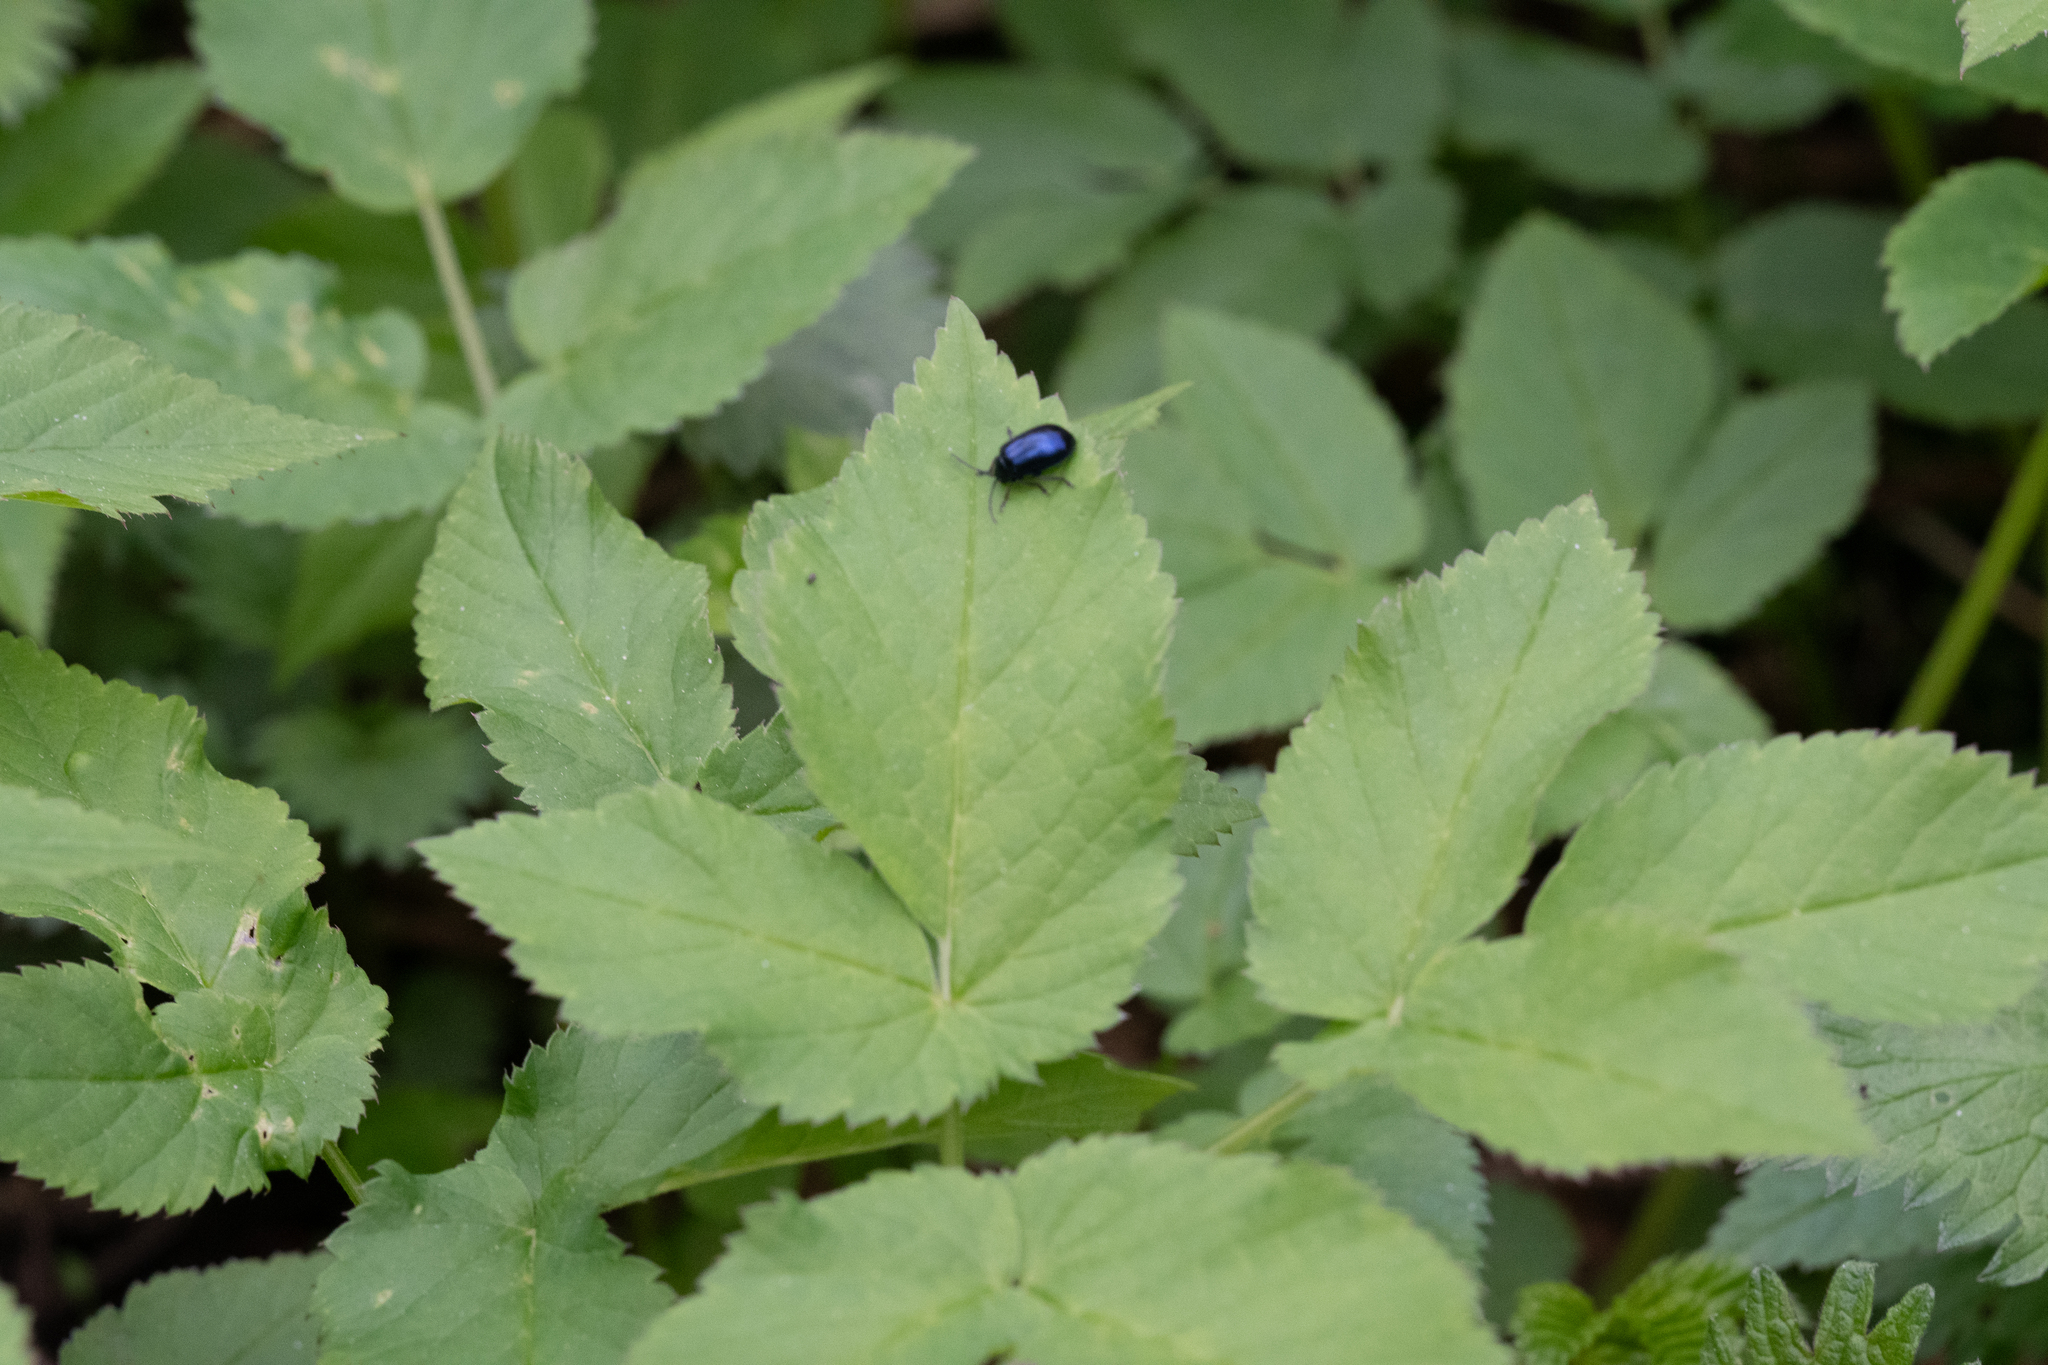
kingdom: Animalia
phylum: Arthropoda
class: Insecta
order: Coleoptera
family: Chrysomelidae
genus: Agelastica
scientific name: Agelastica alni
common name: Alder leaf beetle
